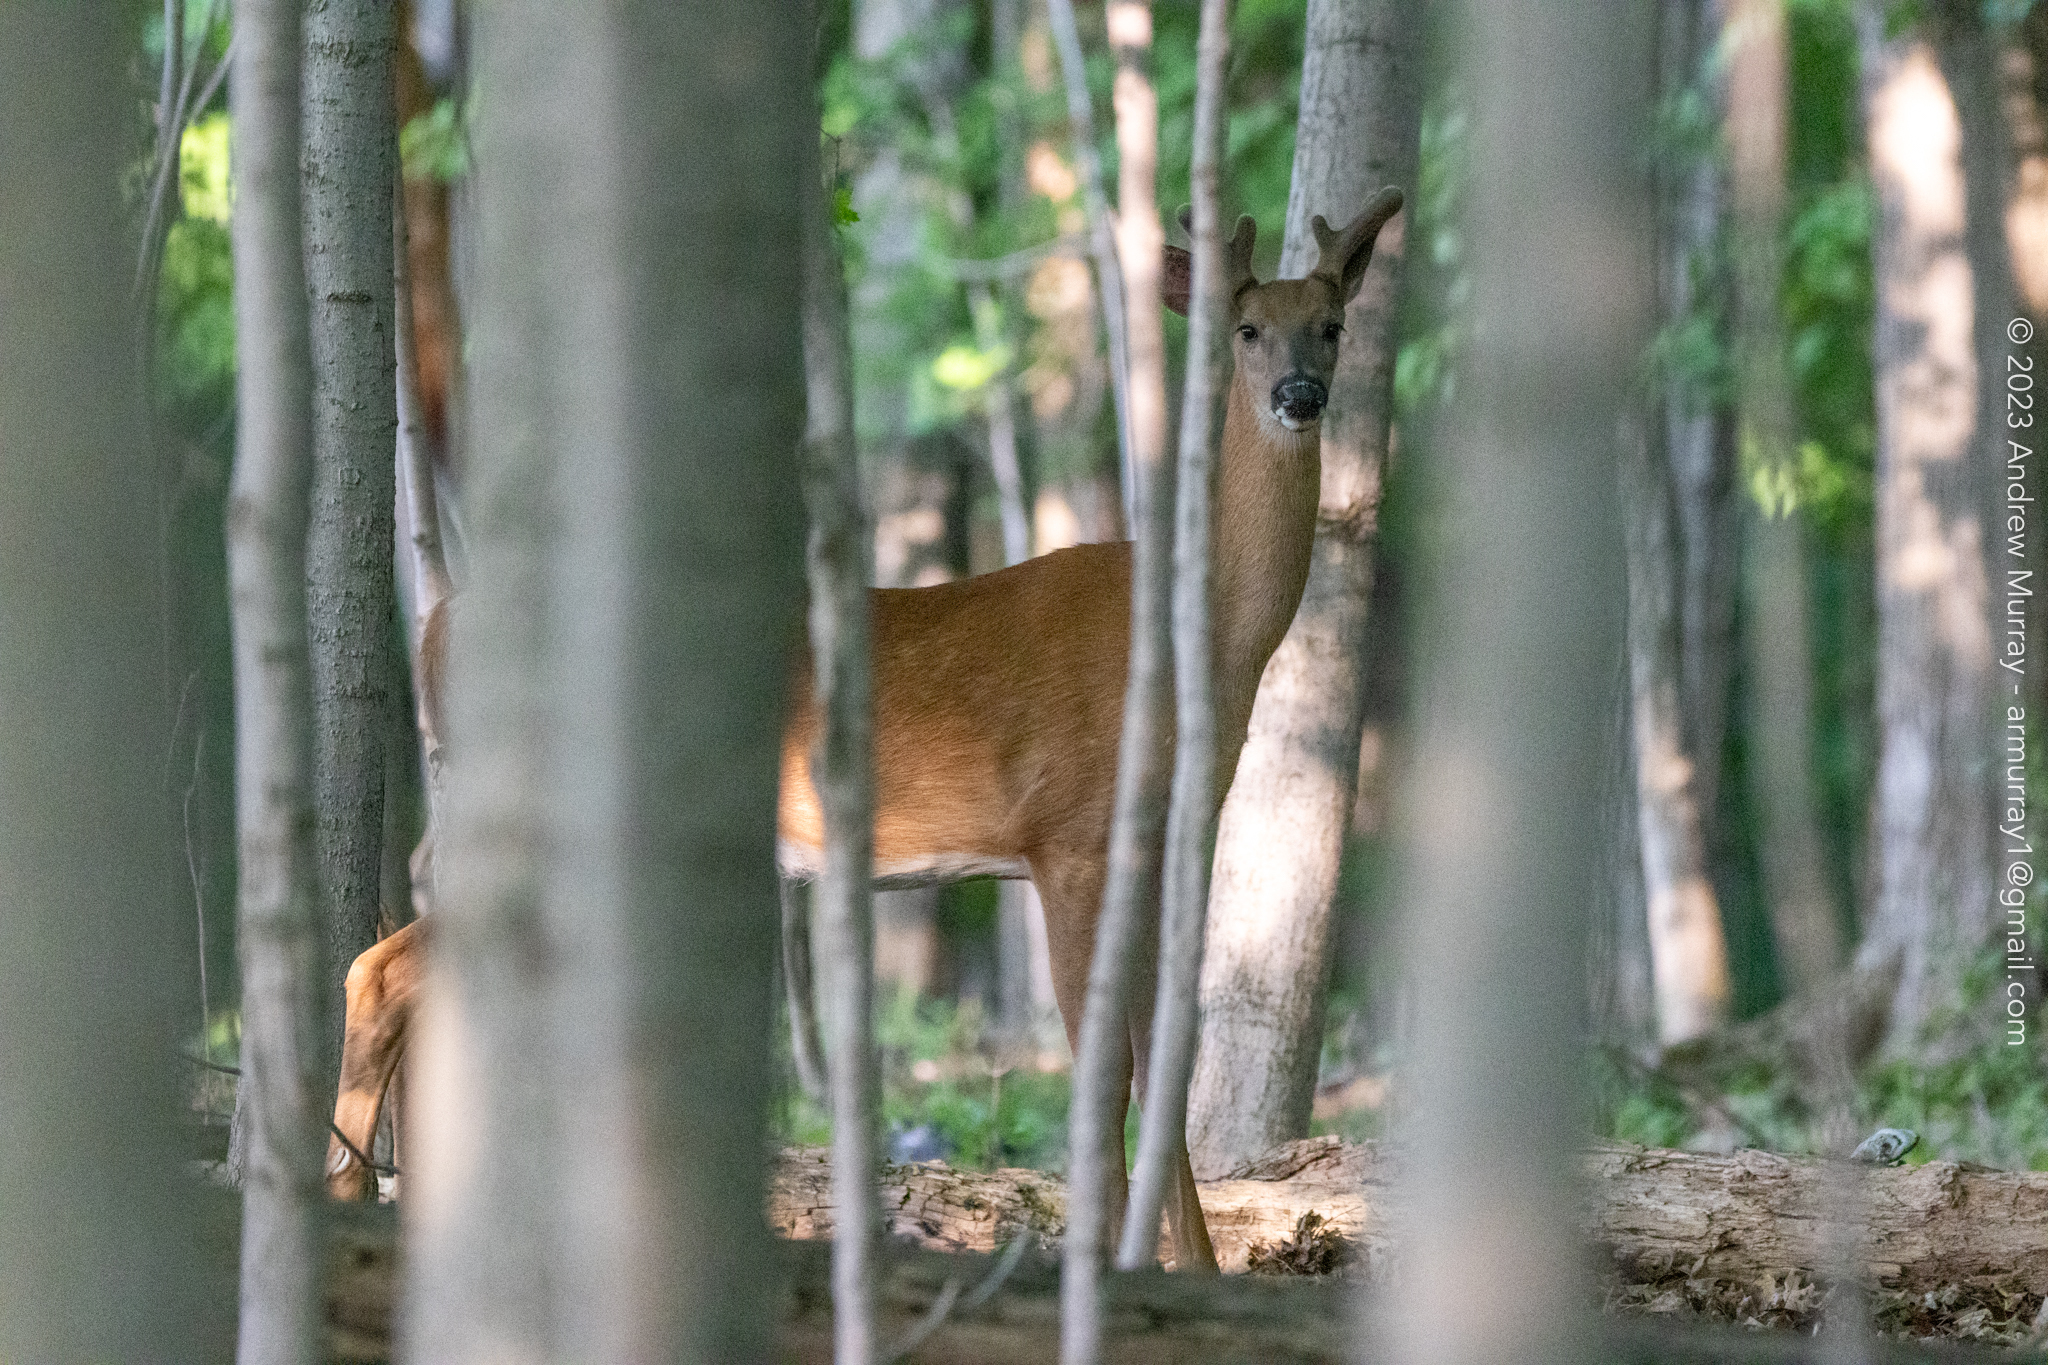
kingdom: Animalia
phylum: Chordata
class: Mammalia
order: Artiodactyla
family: Cervidae
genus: Odocoileus
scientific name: Odocoileus virginianus
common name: White-tailed deer
